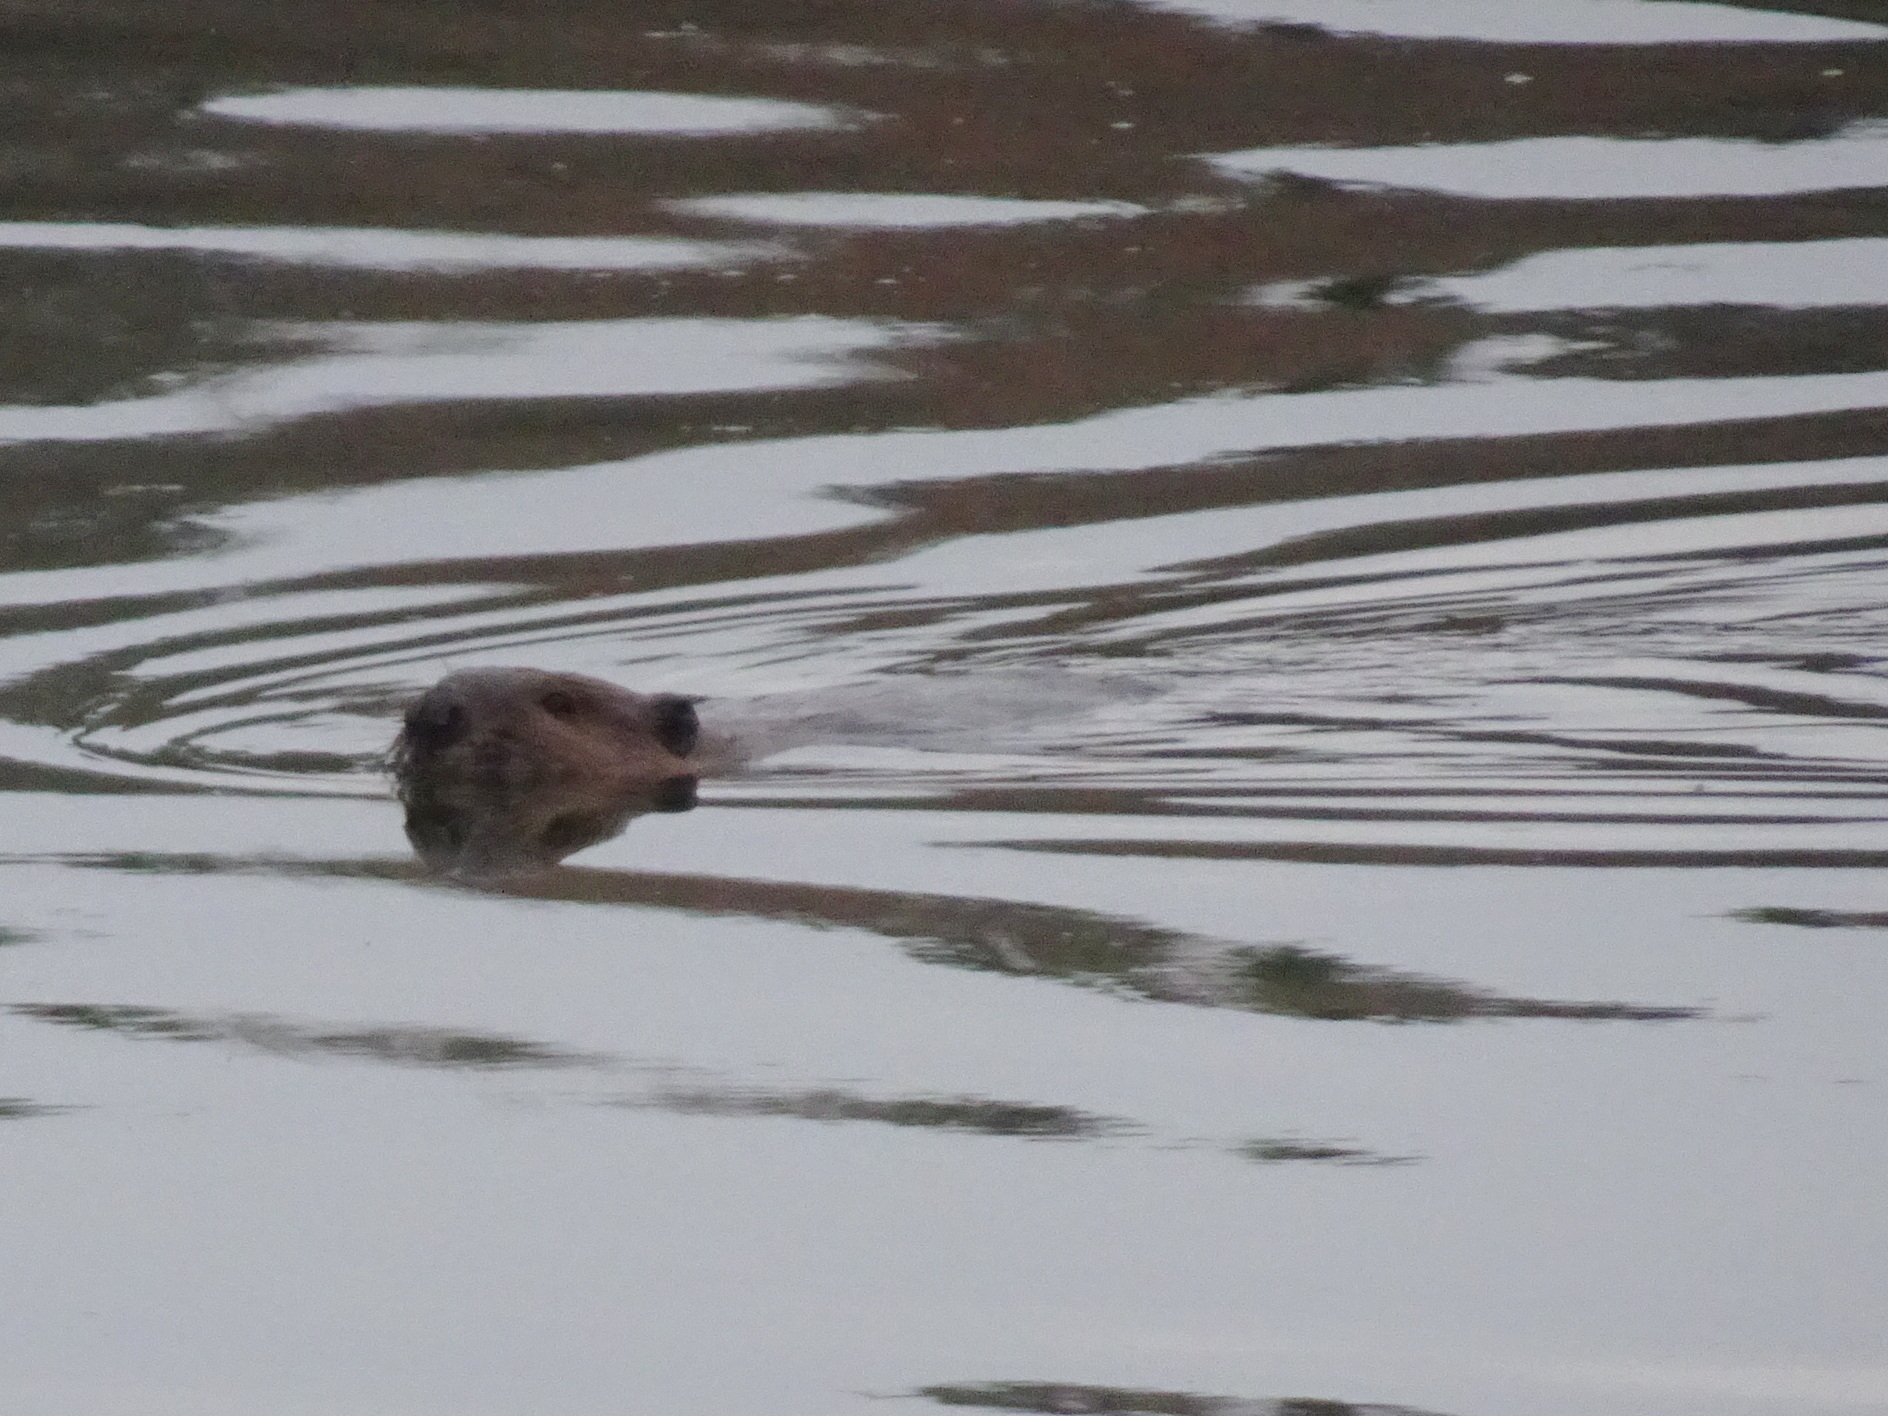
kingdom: Animalia
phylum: Chordata
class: Mammalia
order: Rodentia
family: Castoridae
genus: Castor
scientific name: Castor canadensis
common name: American beaver
